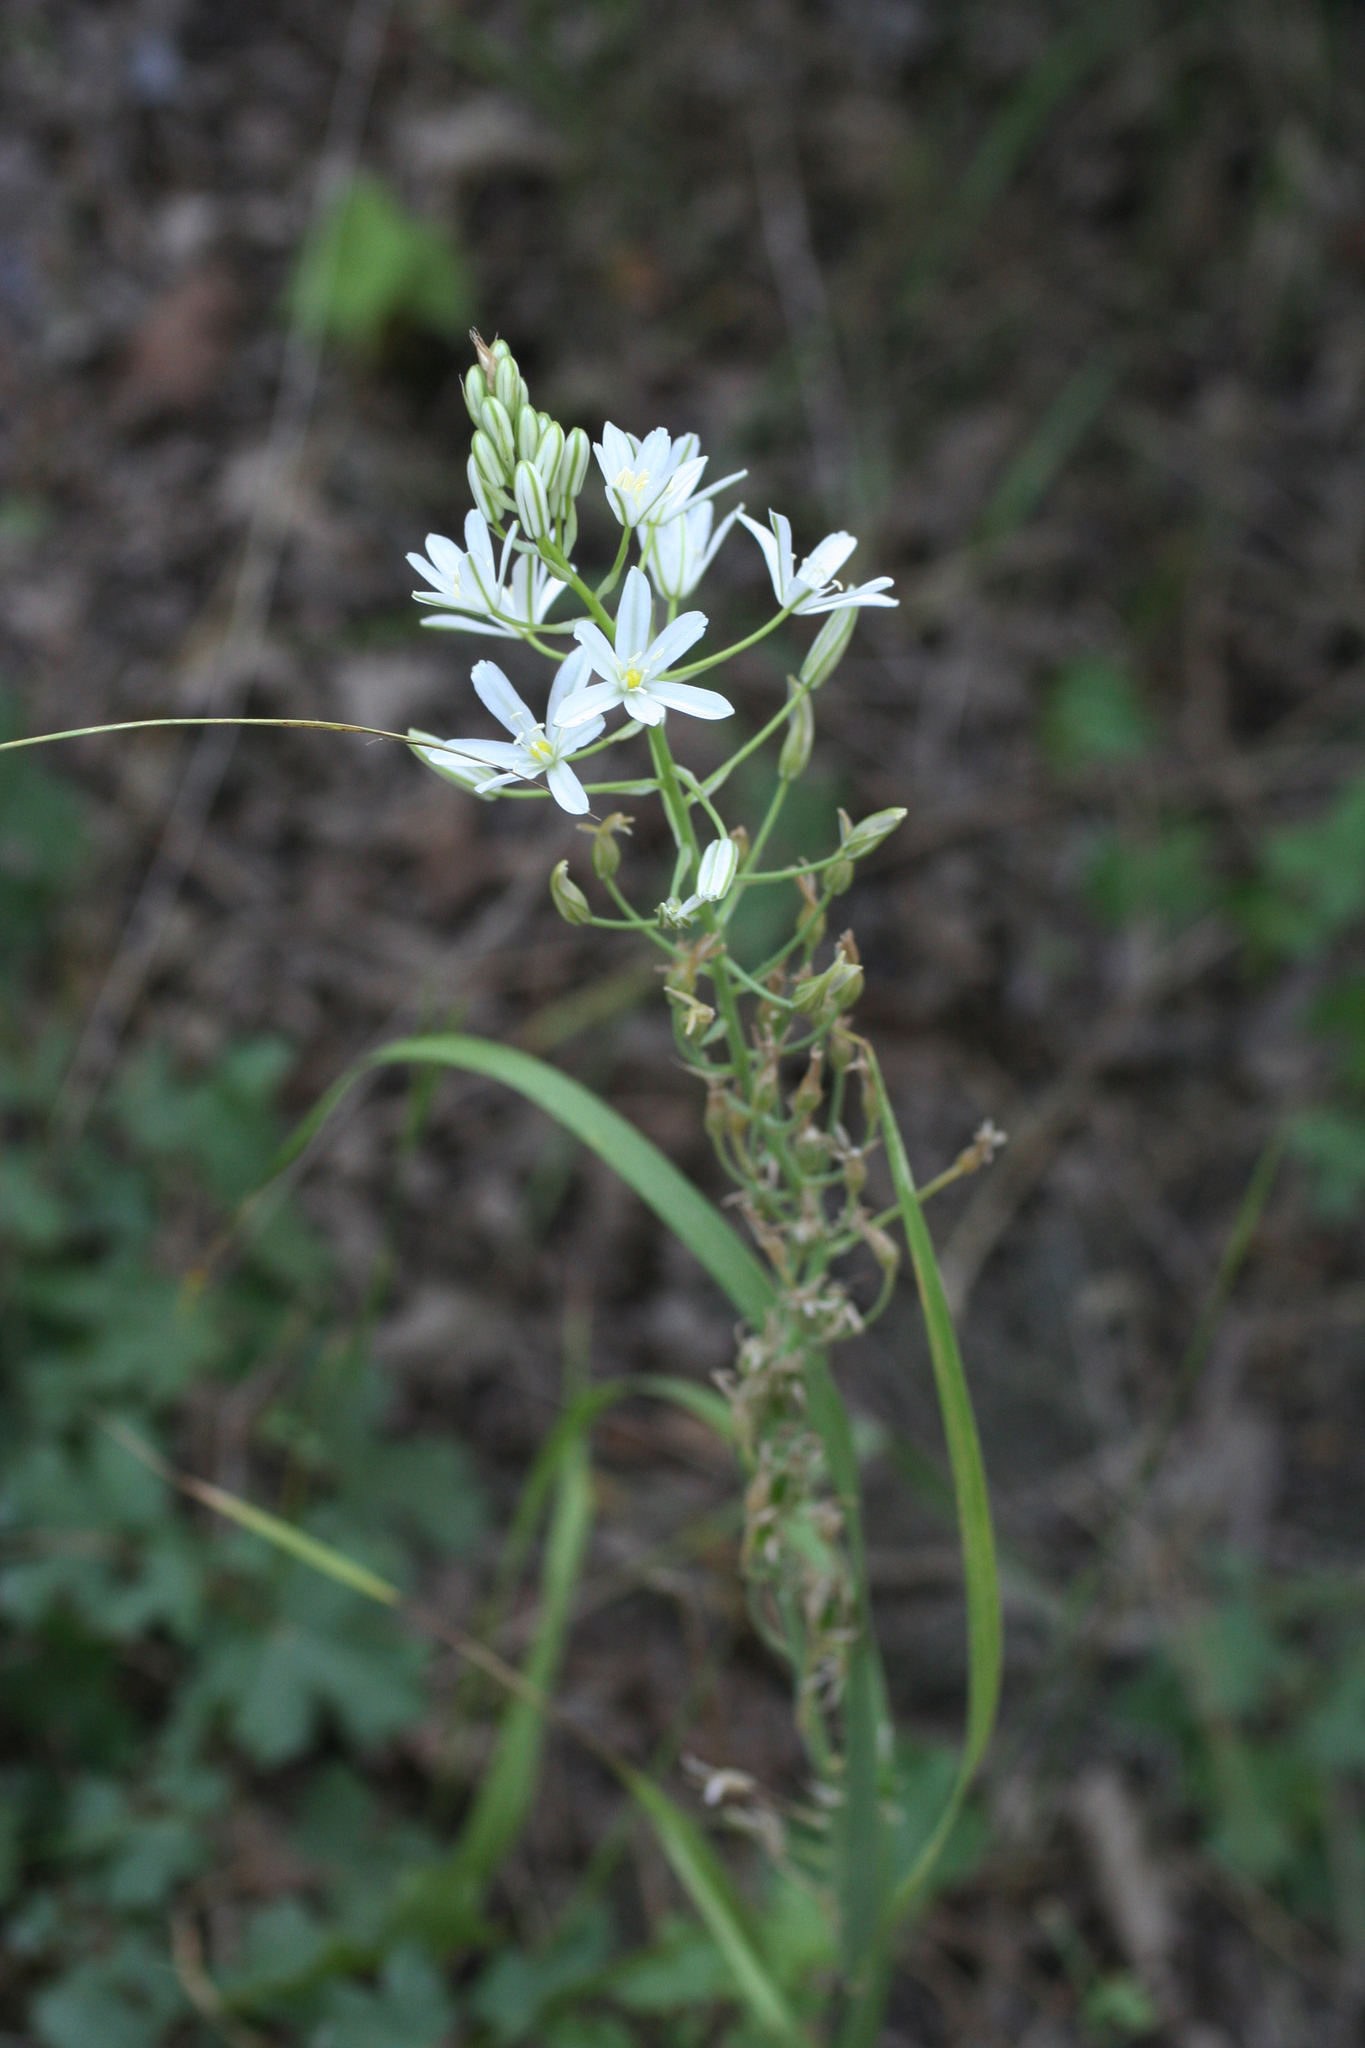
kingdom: Plantae
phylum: Tracheophyta
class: Liliopsida
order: Asparagales
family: Asparagaceae
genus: Ornithogalum
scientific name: Ornithogalum ponticum
